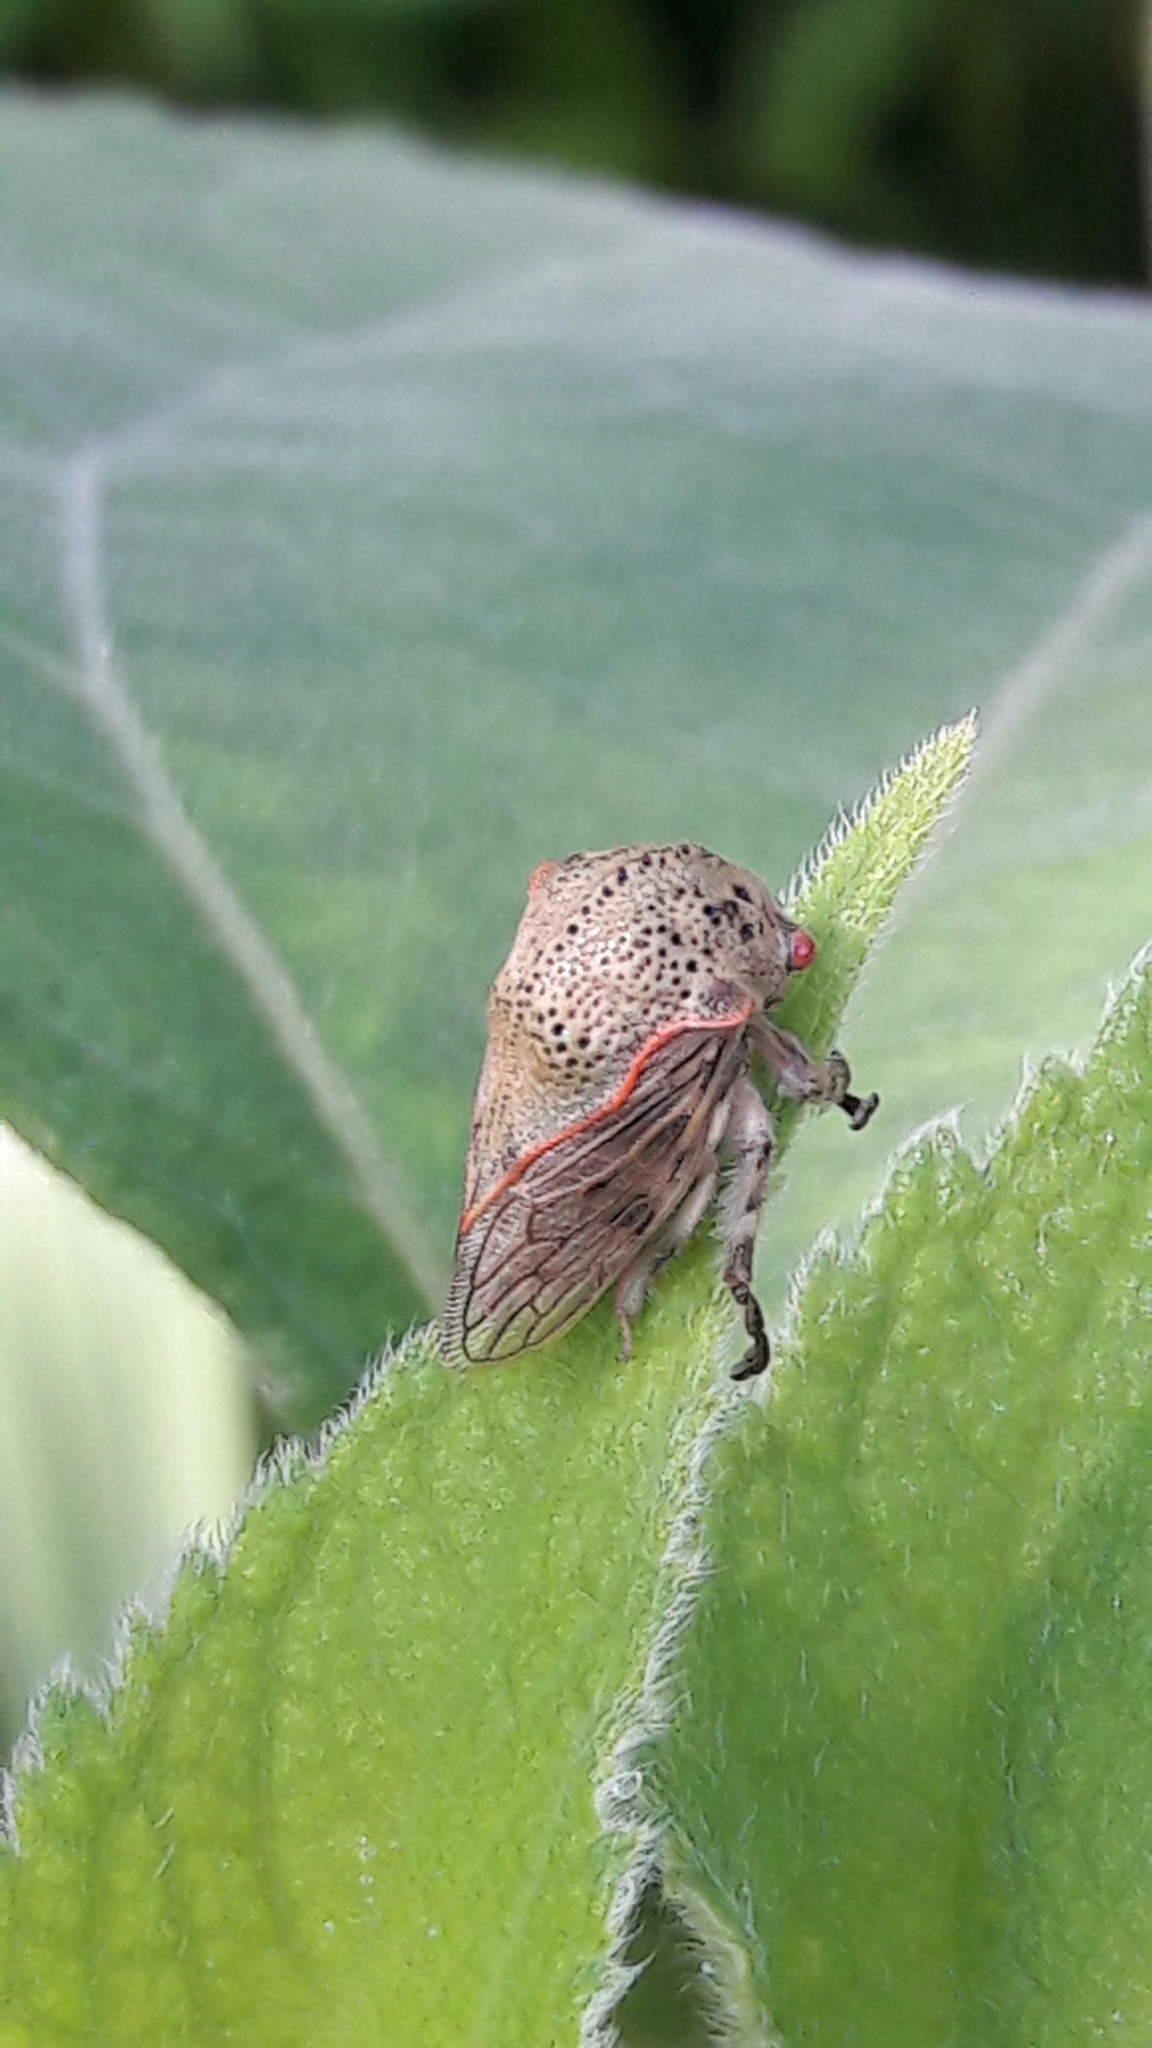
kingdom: Animalia
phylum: Arthropoda
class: Insecta
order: Hemiptera
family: Membracidae
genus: Metcalfiella
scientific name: Metcalfiella pertusa
